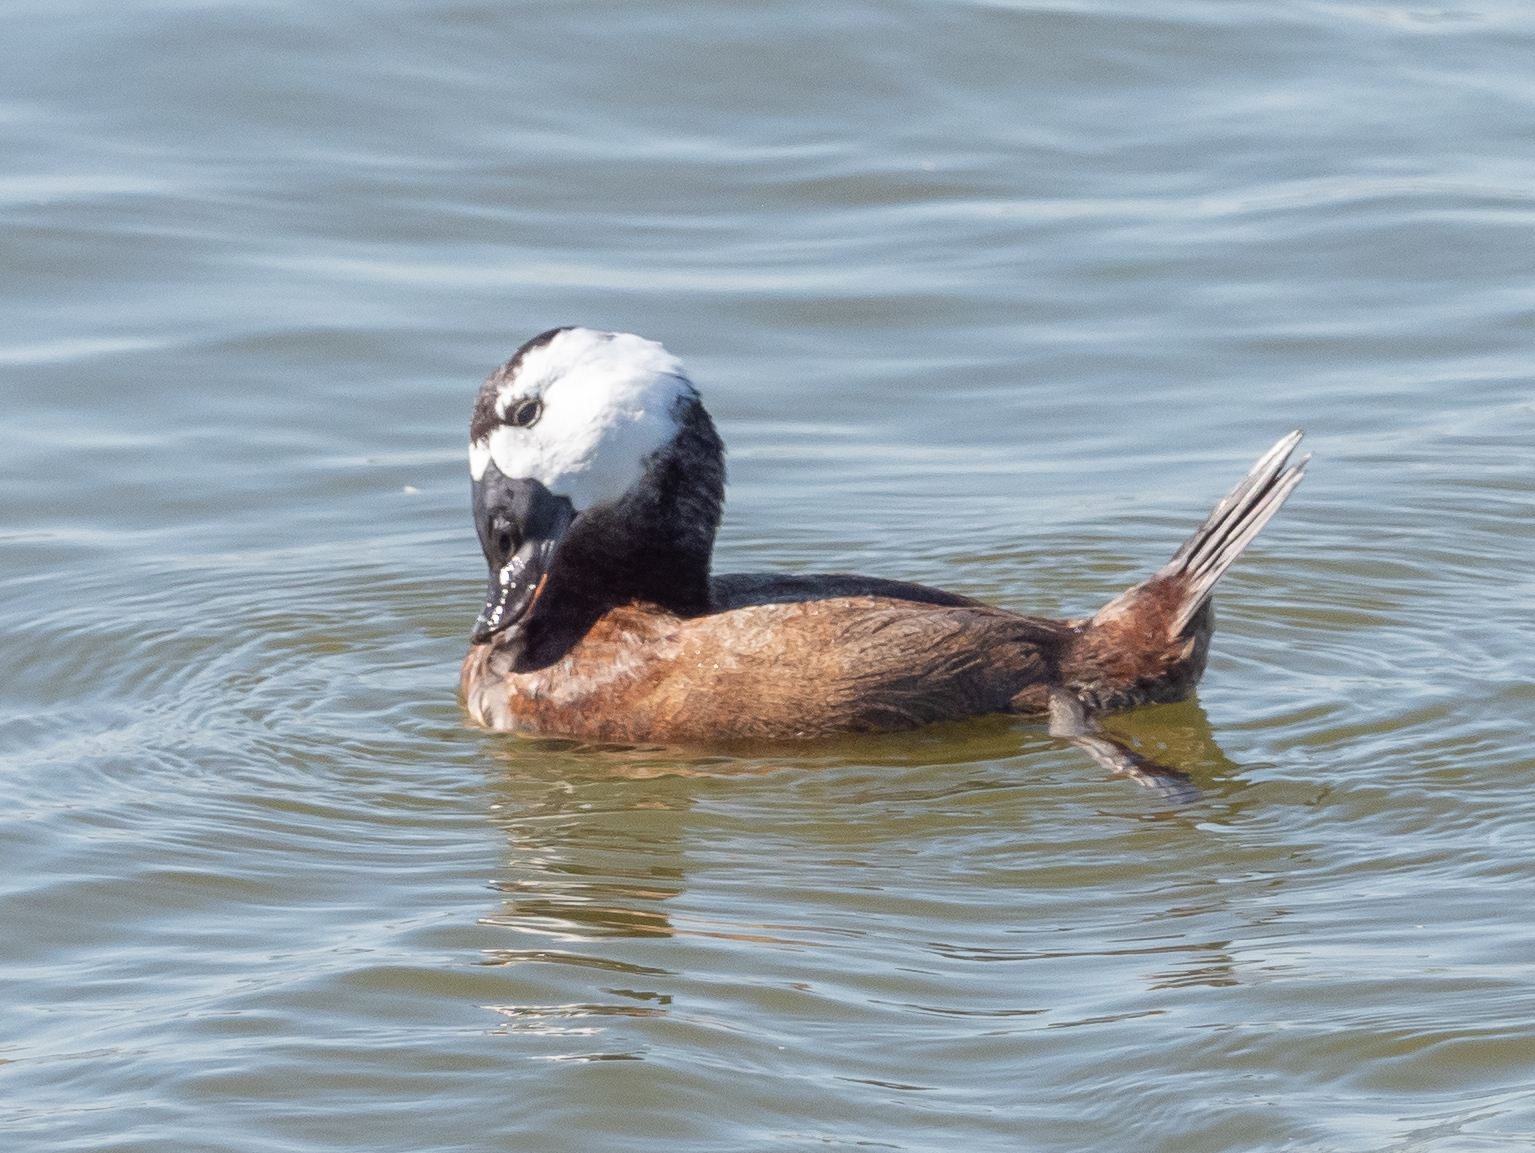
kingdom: Animalia
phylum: Chordata
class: Aves
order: Anseriformes
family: Anatidae
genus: Oxyura
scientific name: Oxyura leucocephala
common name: White-headed duck
